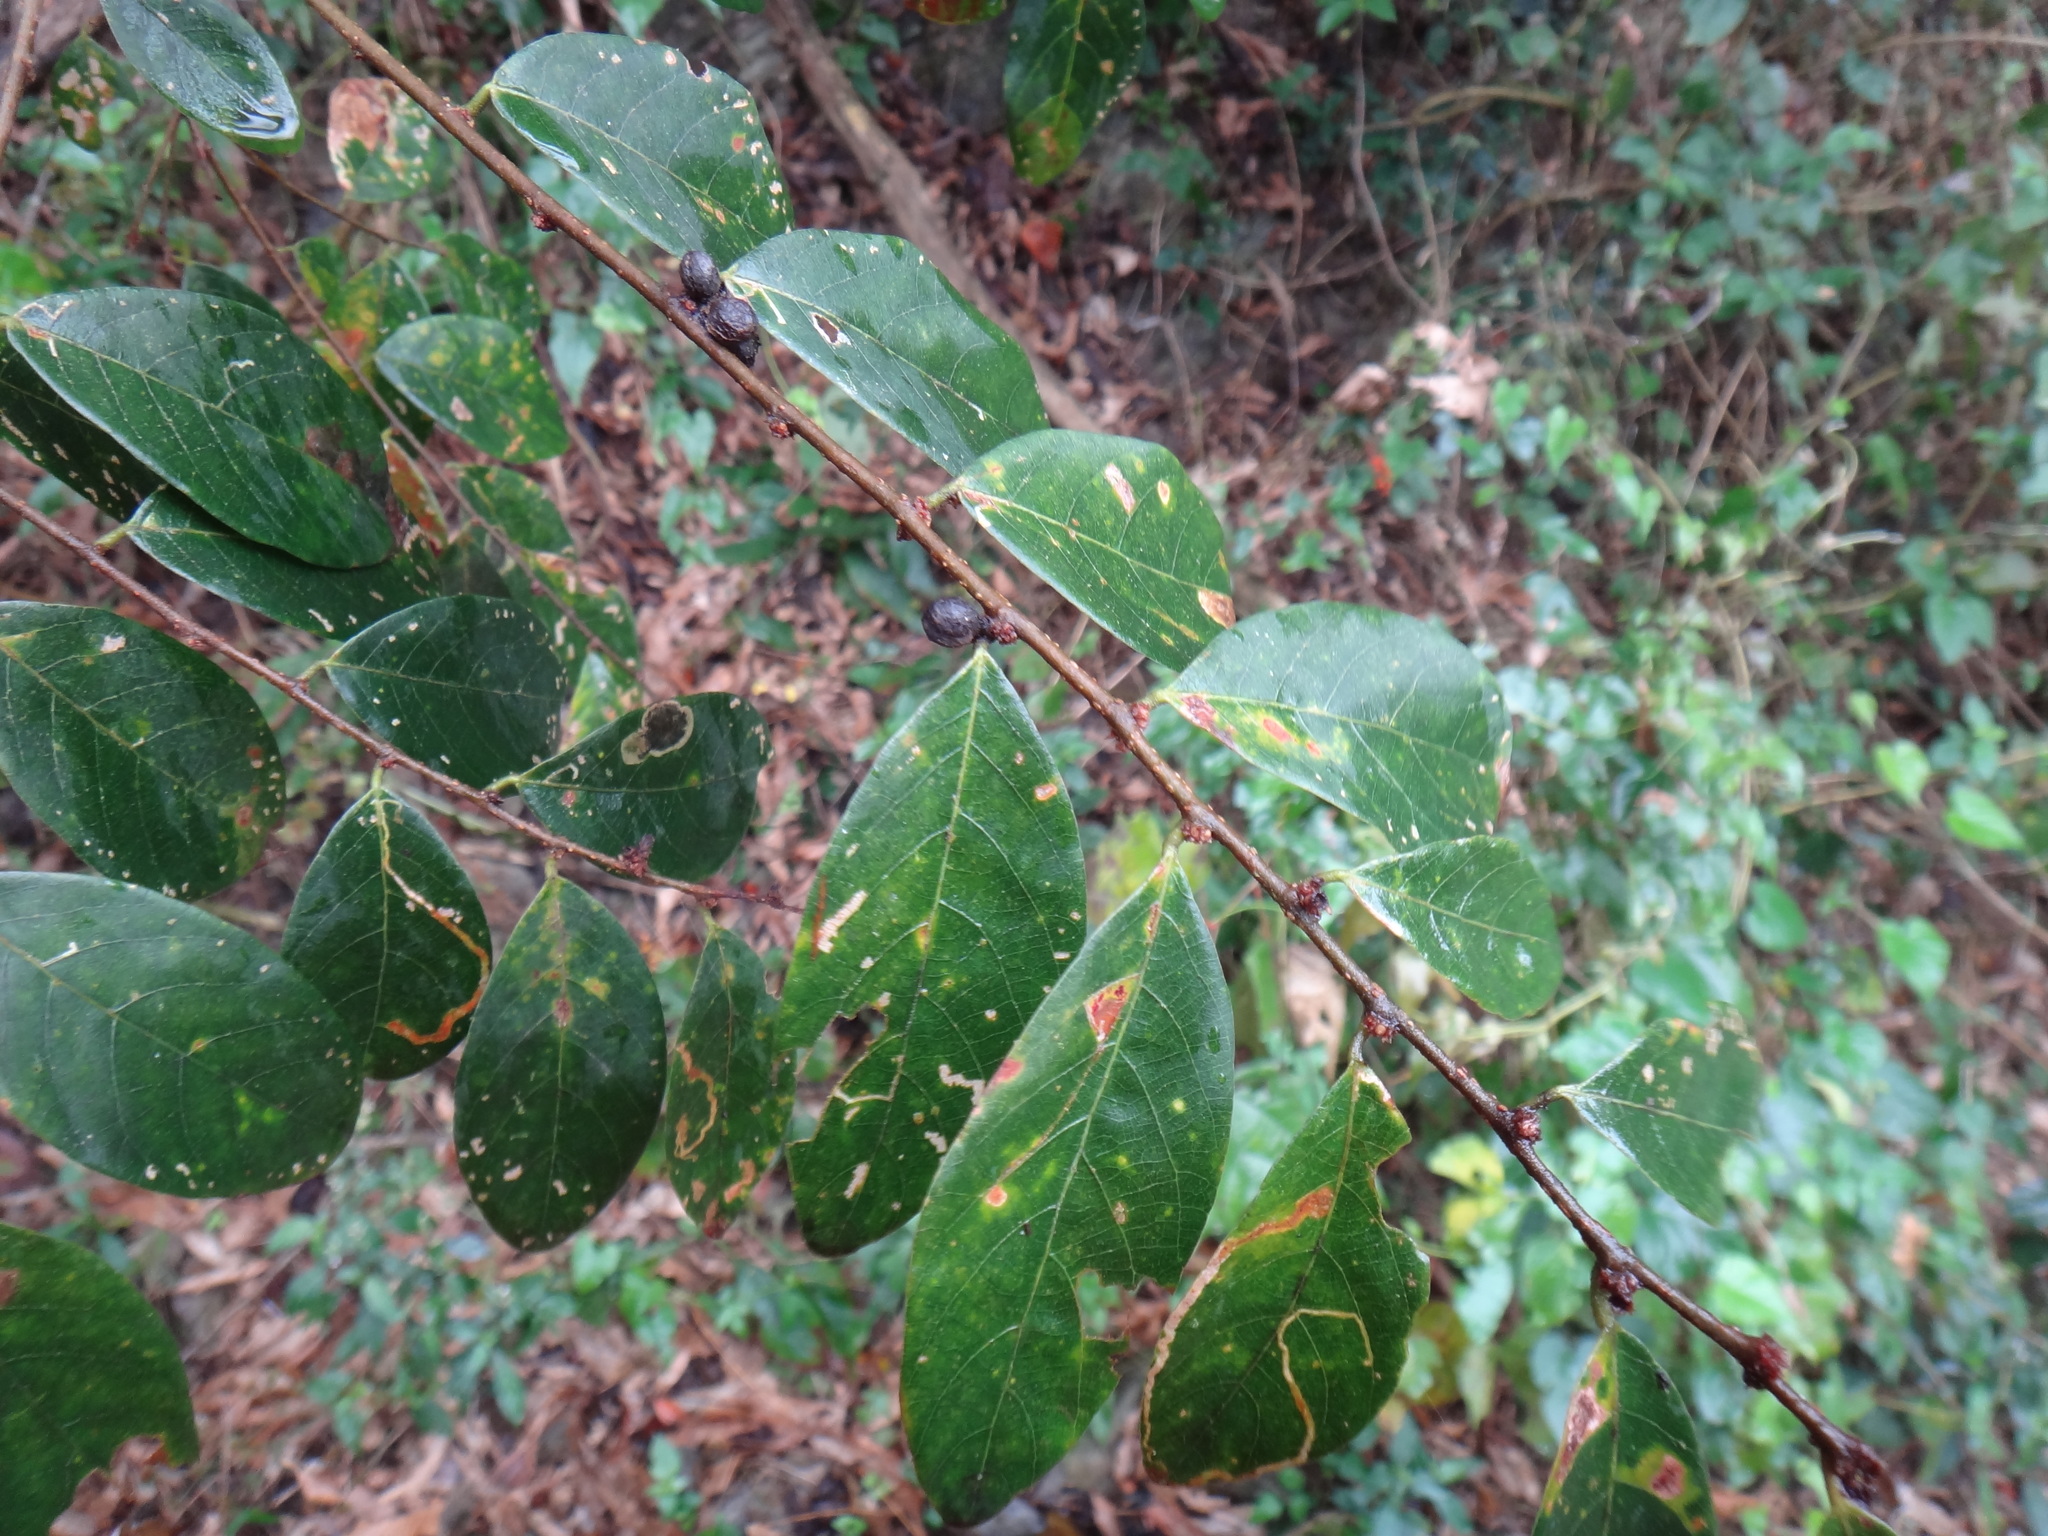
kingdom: Plantae
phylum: Tracheophyta
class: Magnoliopsida
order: Malpighiales
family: Phyllanthaceae
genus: Breynia
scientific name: Breynia vitis-idaea
